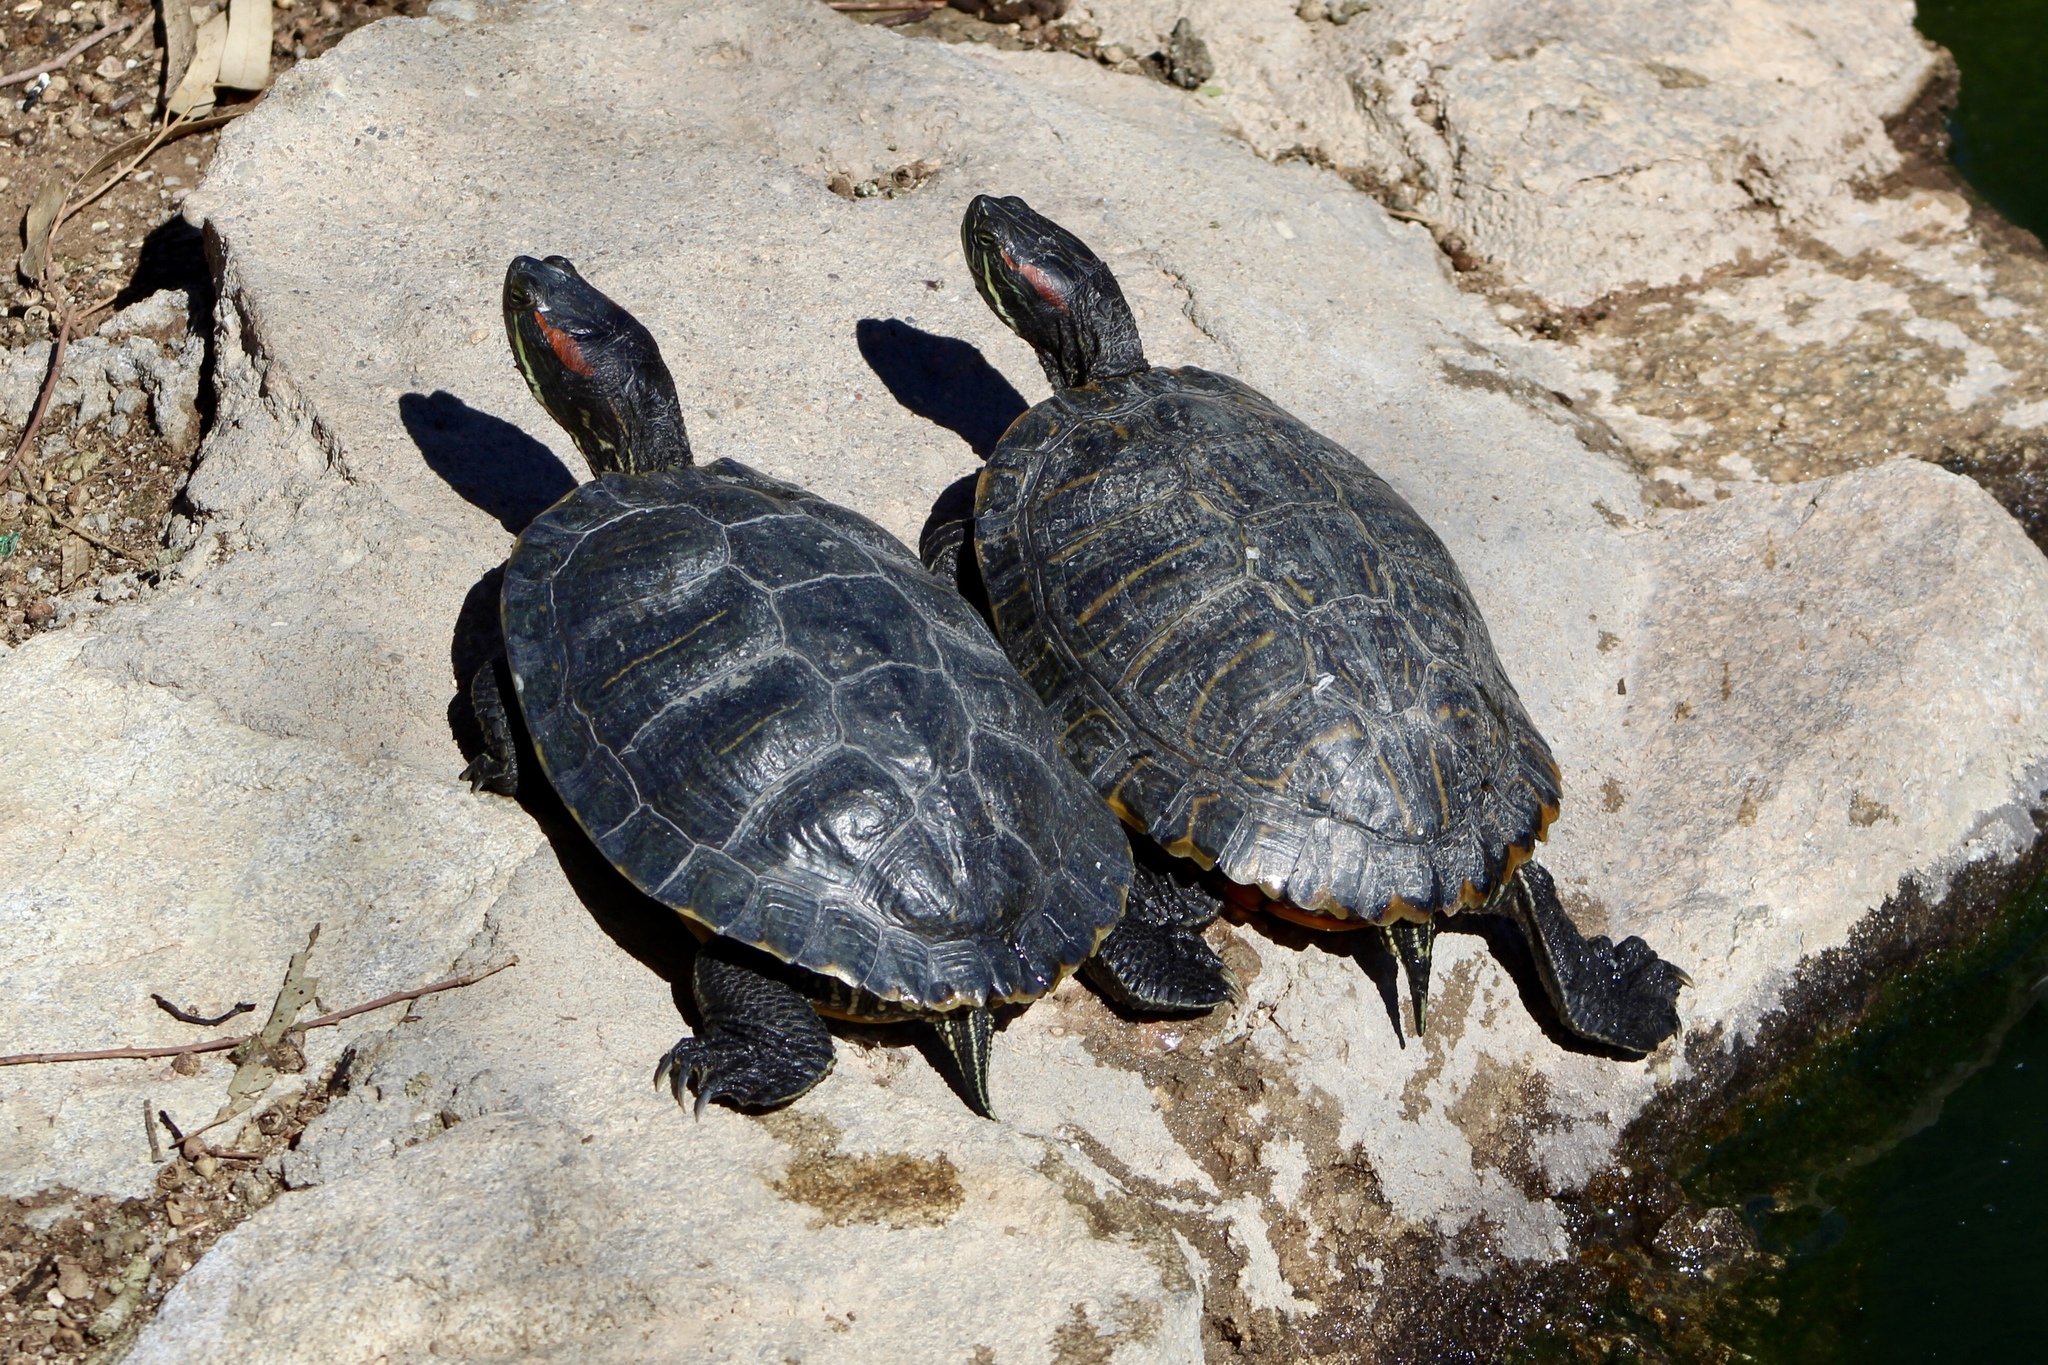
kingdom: Animalia
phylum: Chordata
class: Testudines
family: Emydidae
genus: Trachemys
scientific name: Trachemys scripta
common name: Slider
